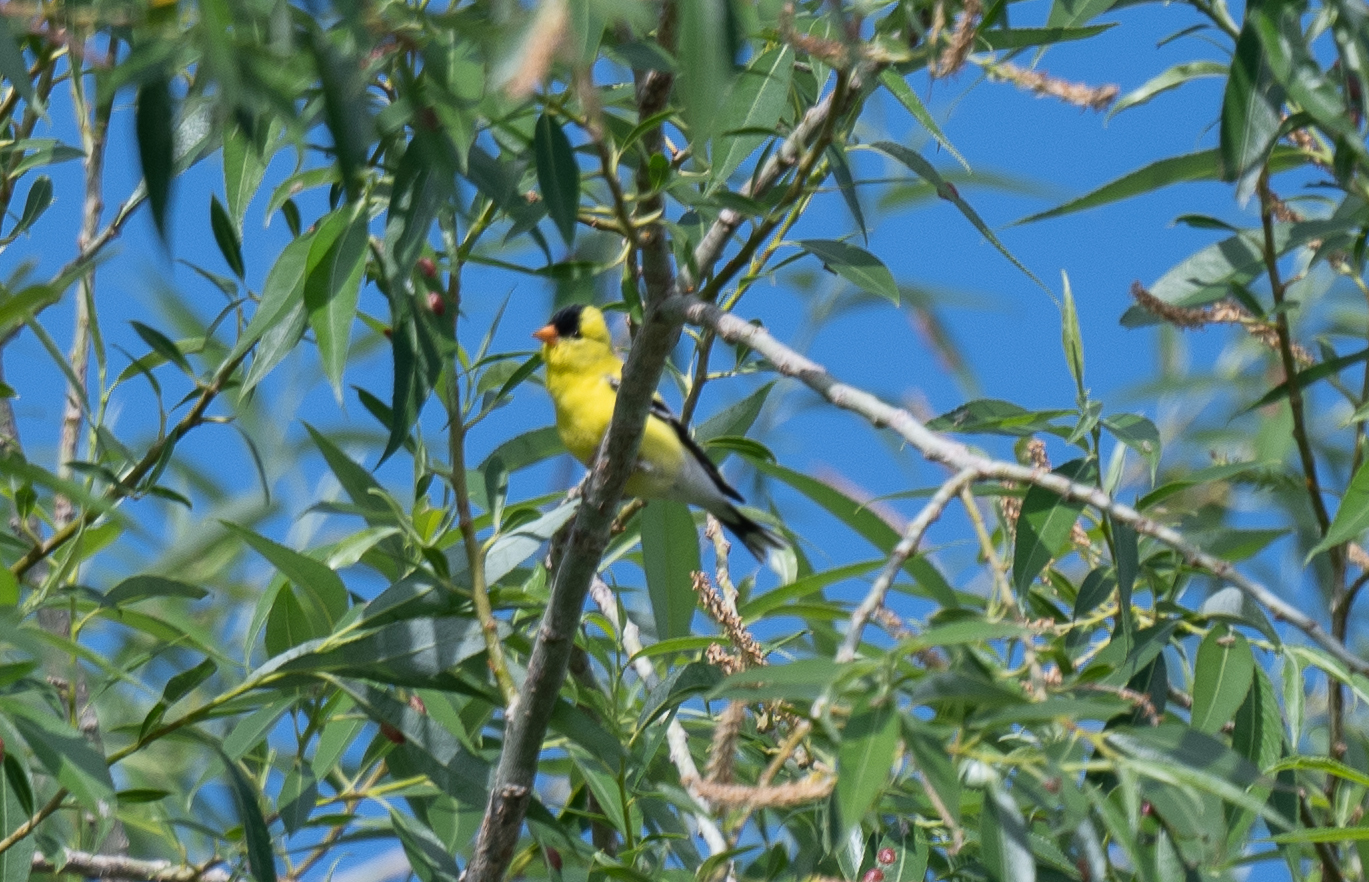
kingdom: Animalia
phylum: Chordata
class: Aves
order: Passeriformes
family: Fringillidae
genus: Spinus
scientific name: Spinus tristis
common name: American goldfinch
